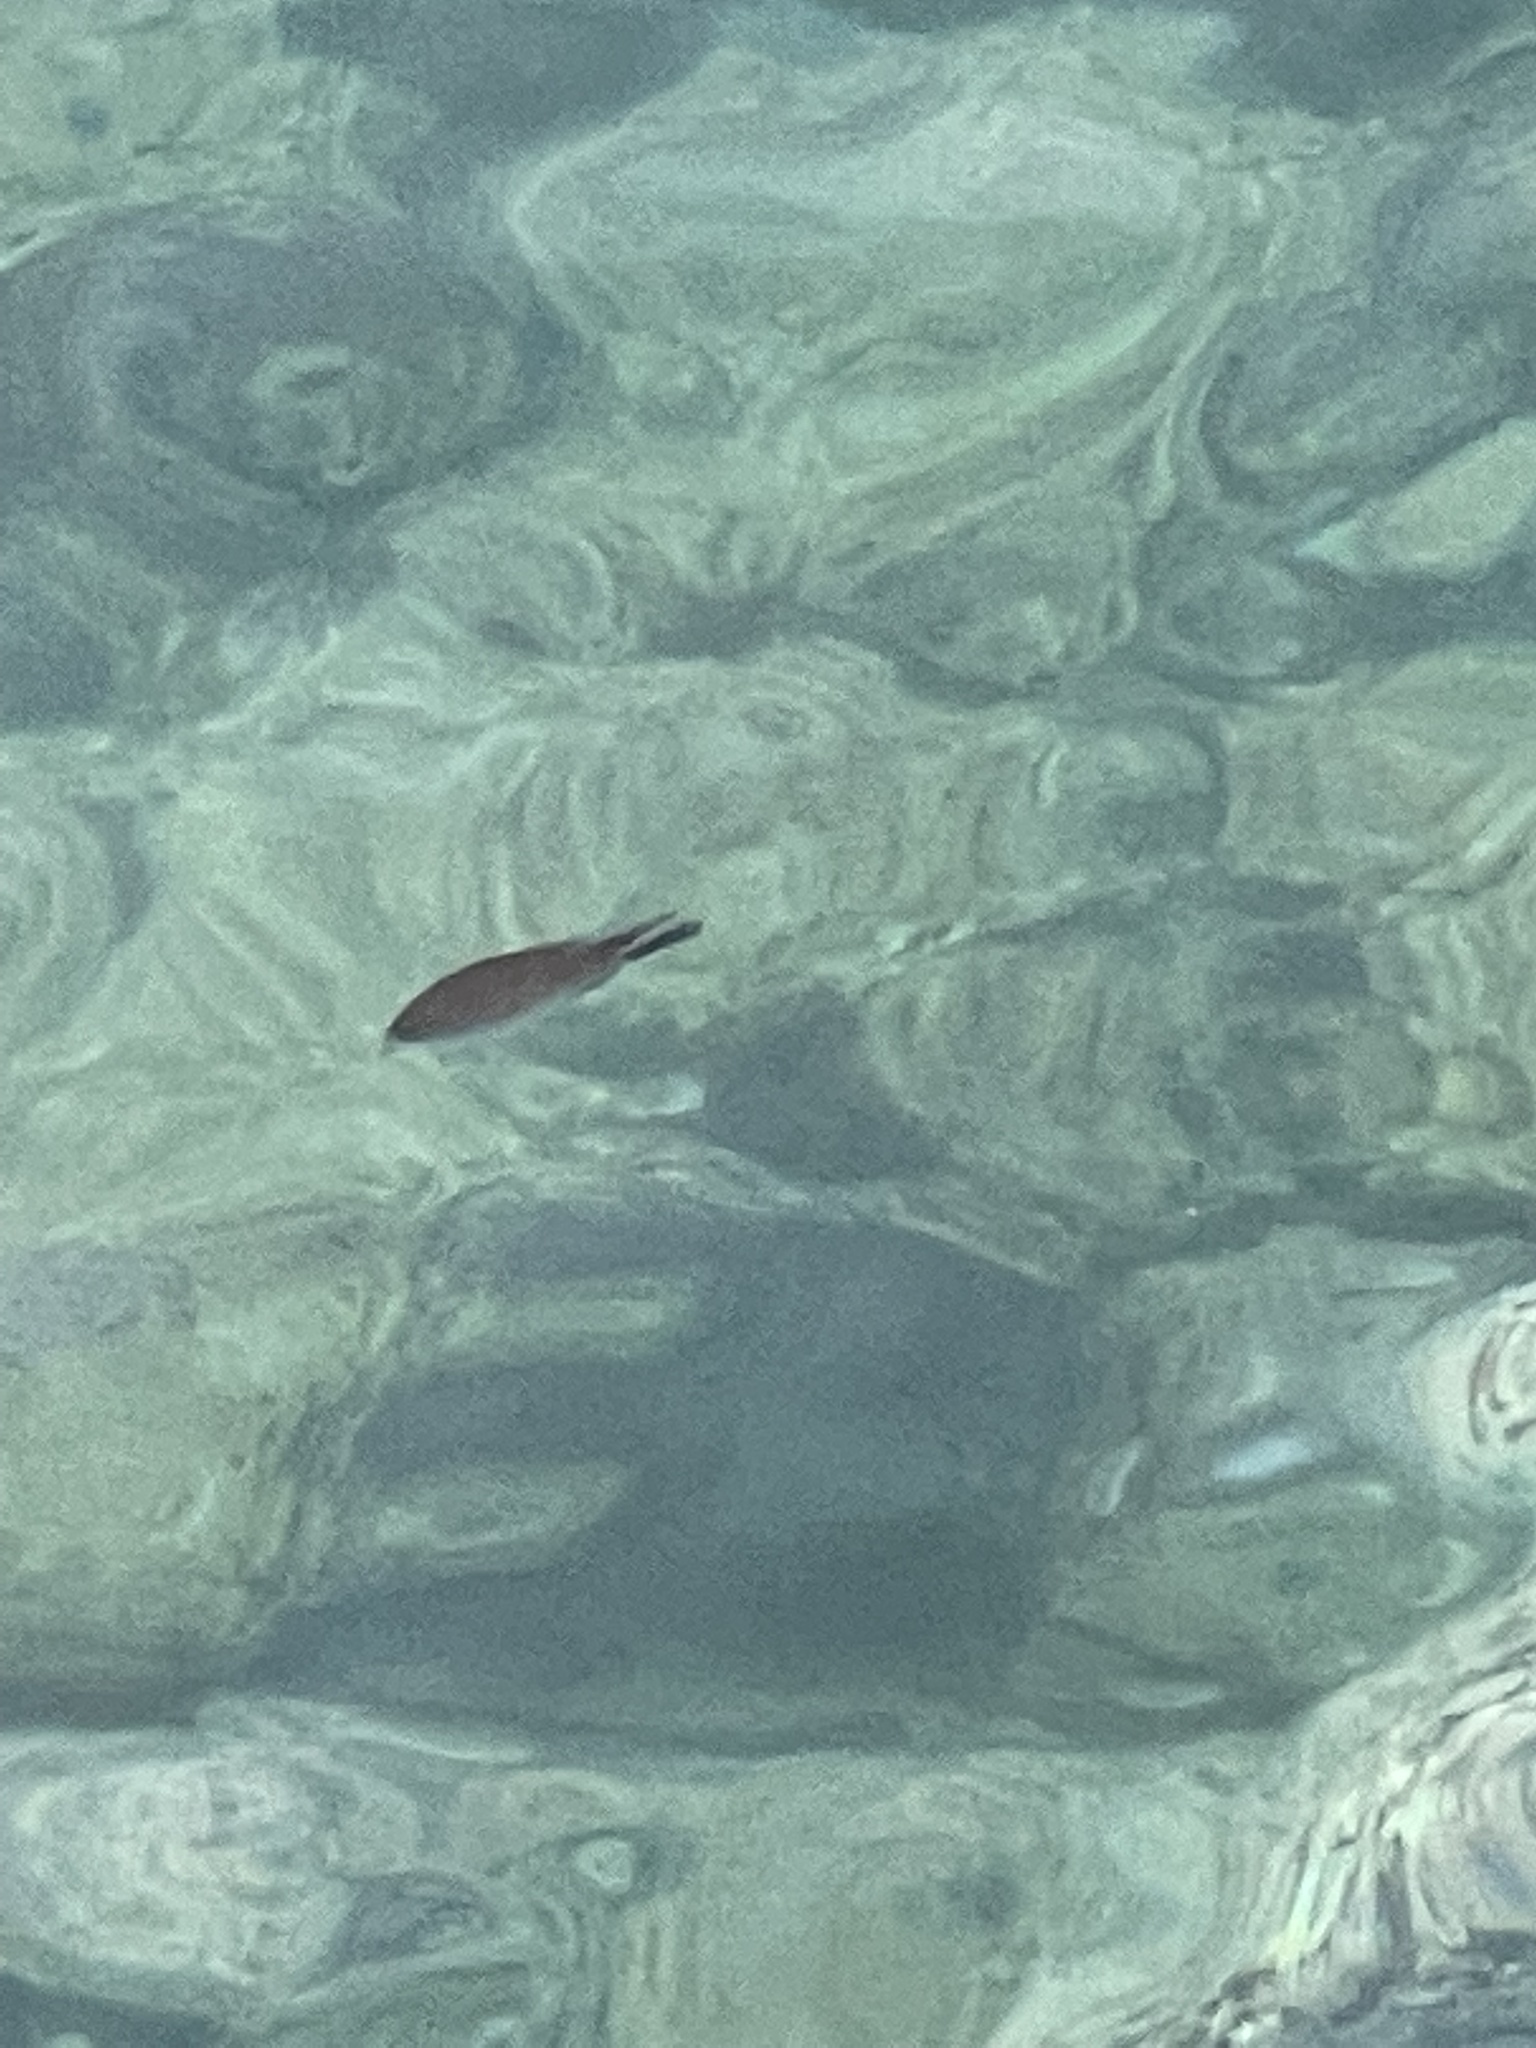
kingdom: Animalia
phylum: Chordata
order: Perciformes
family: Pomacentridae
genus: Chromis
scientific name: Chromis chromis
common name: Damselfish
